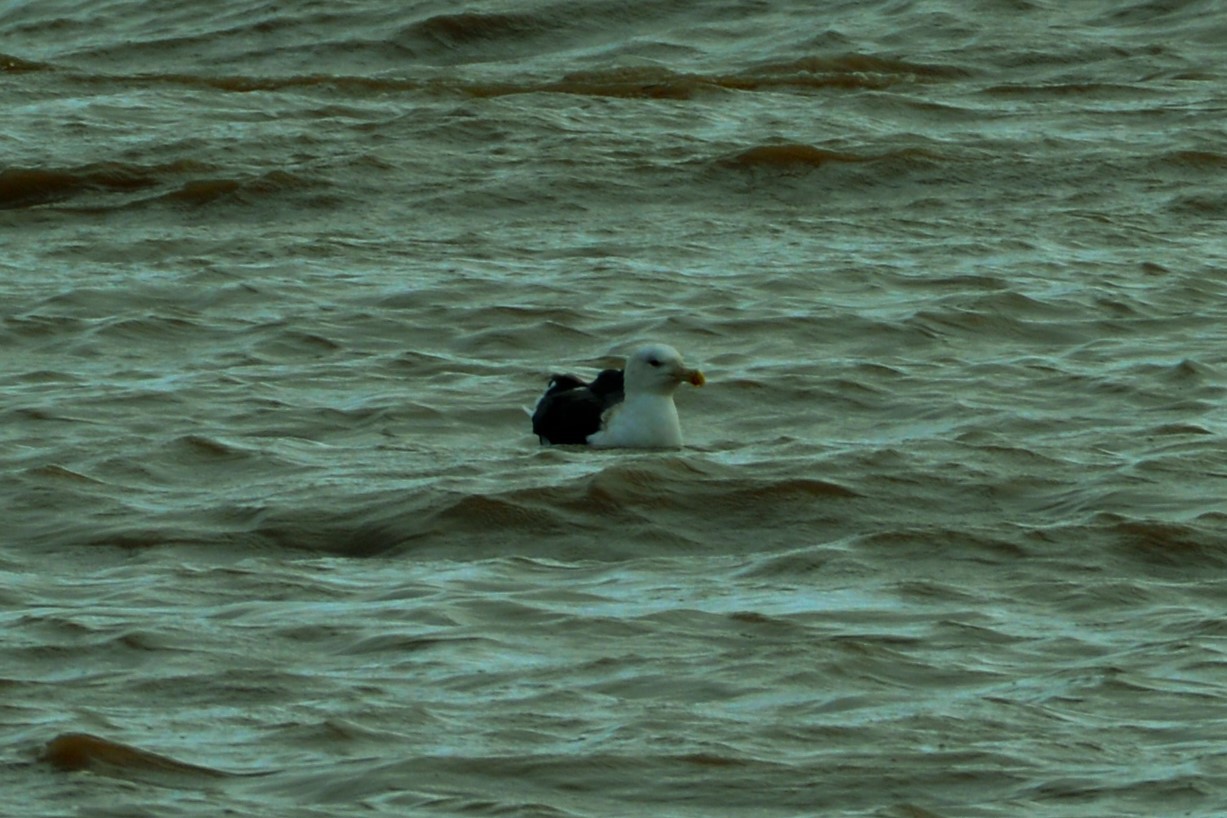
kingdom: Animalia
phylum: Chordata
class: Aves
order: Charadriiformes
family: Laridae
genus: Larus
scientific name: Larus marinus
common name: Great black-backed gull
